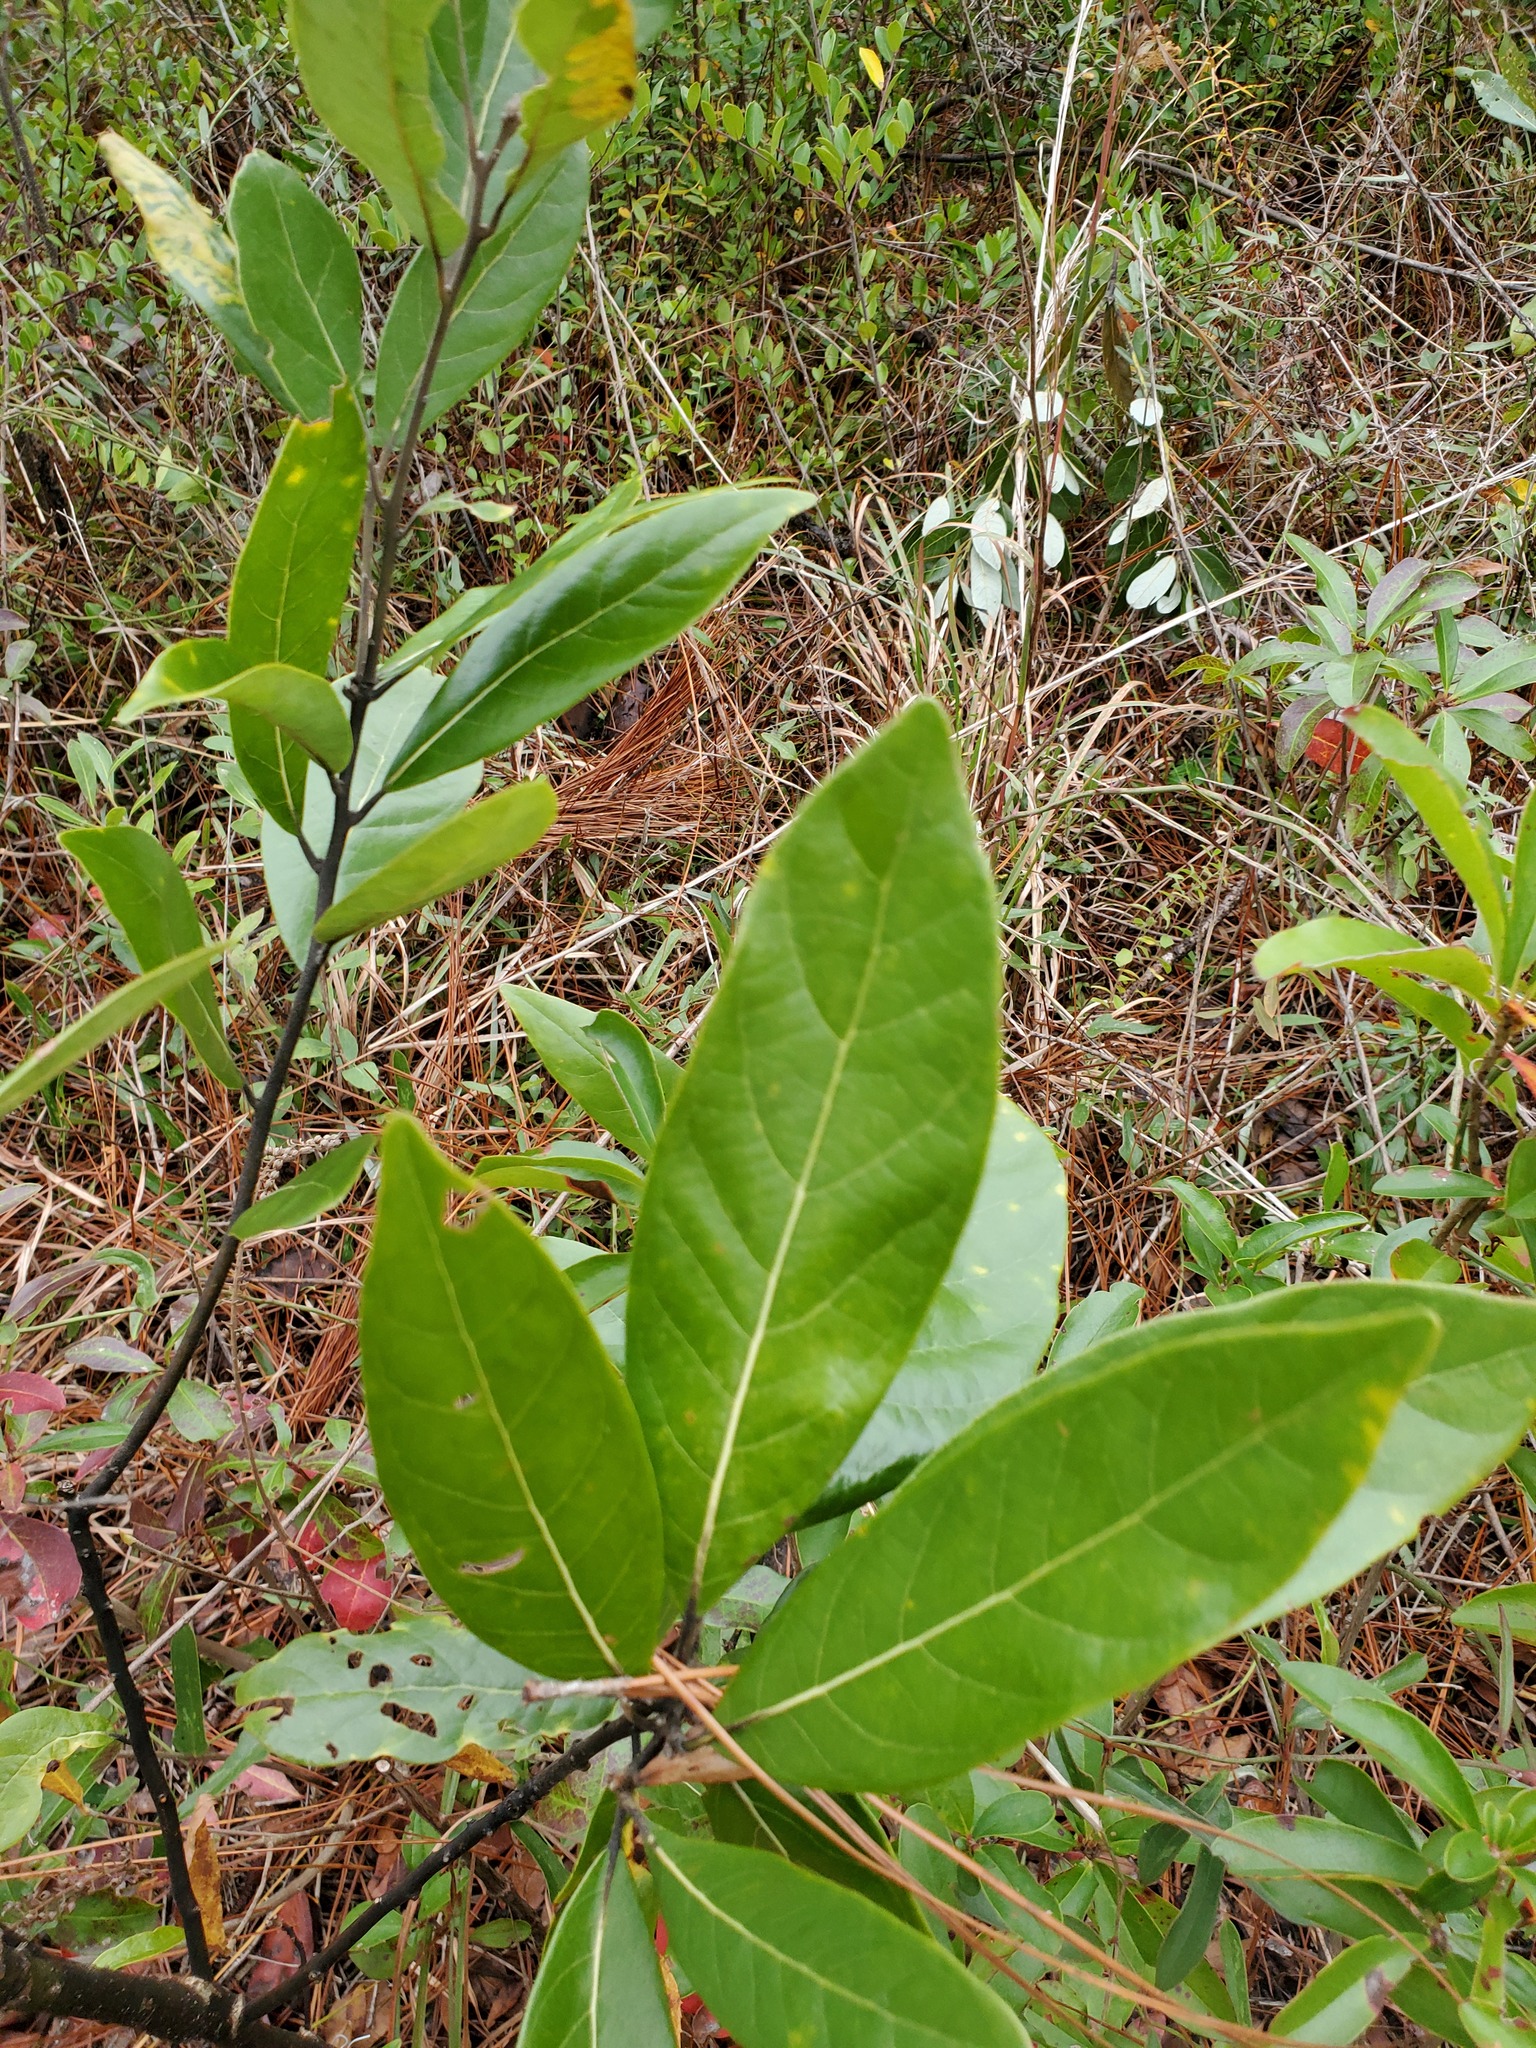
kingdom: Plantae
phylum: Tracheophyta
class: Magnoliopsida
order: Laurales
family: Lauraceae
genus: Persea
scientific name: Persea borbonia
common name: Redbay
